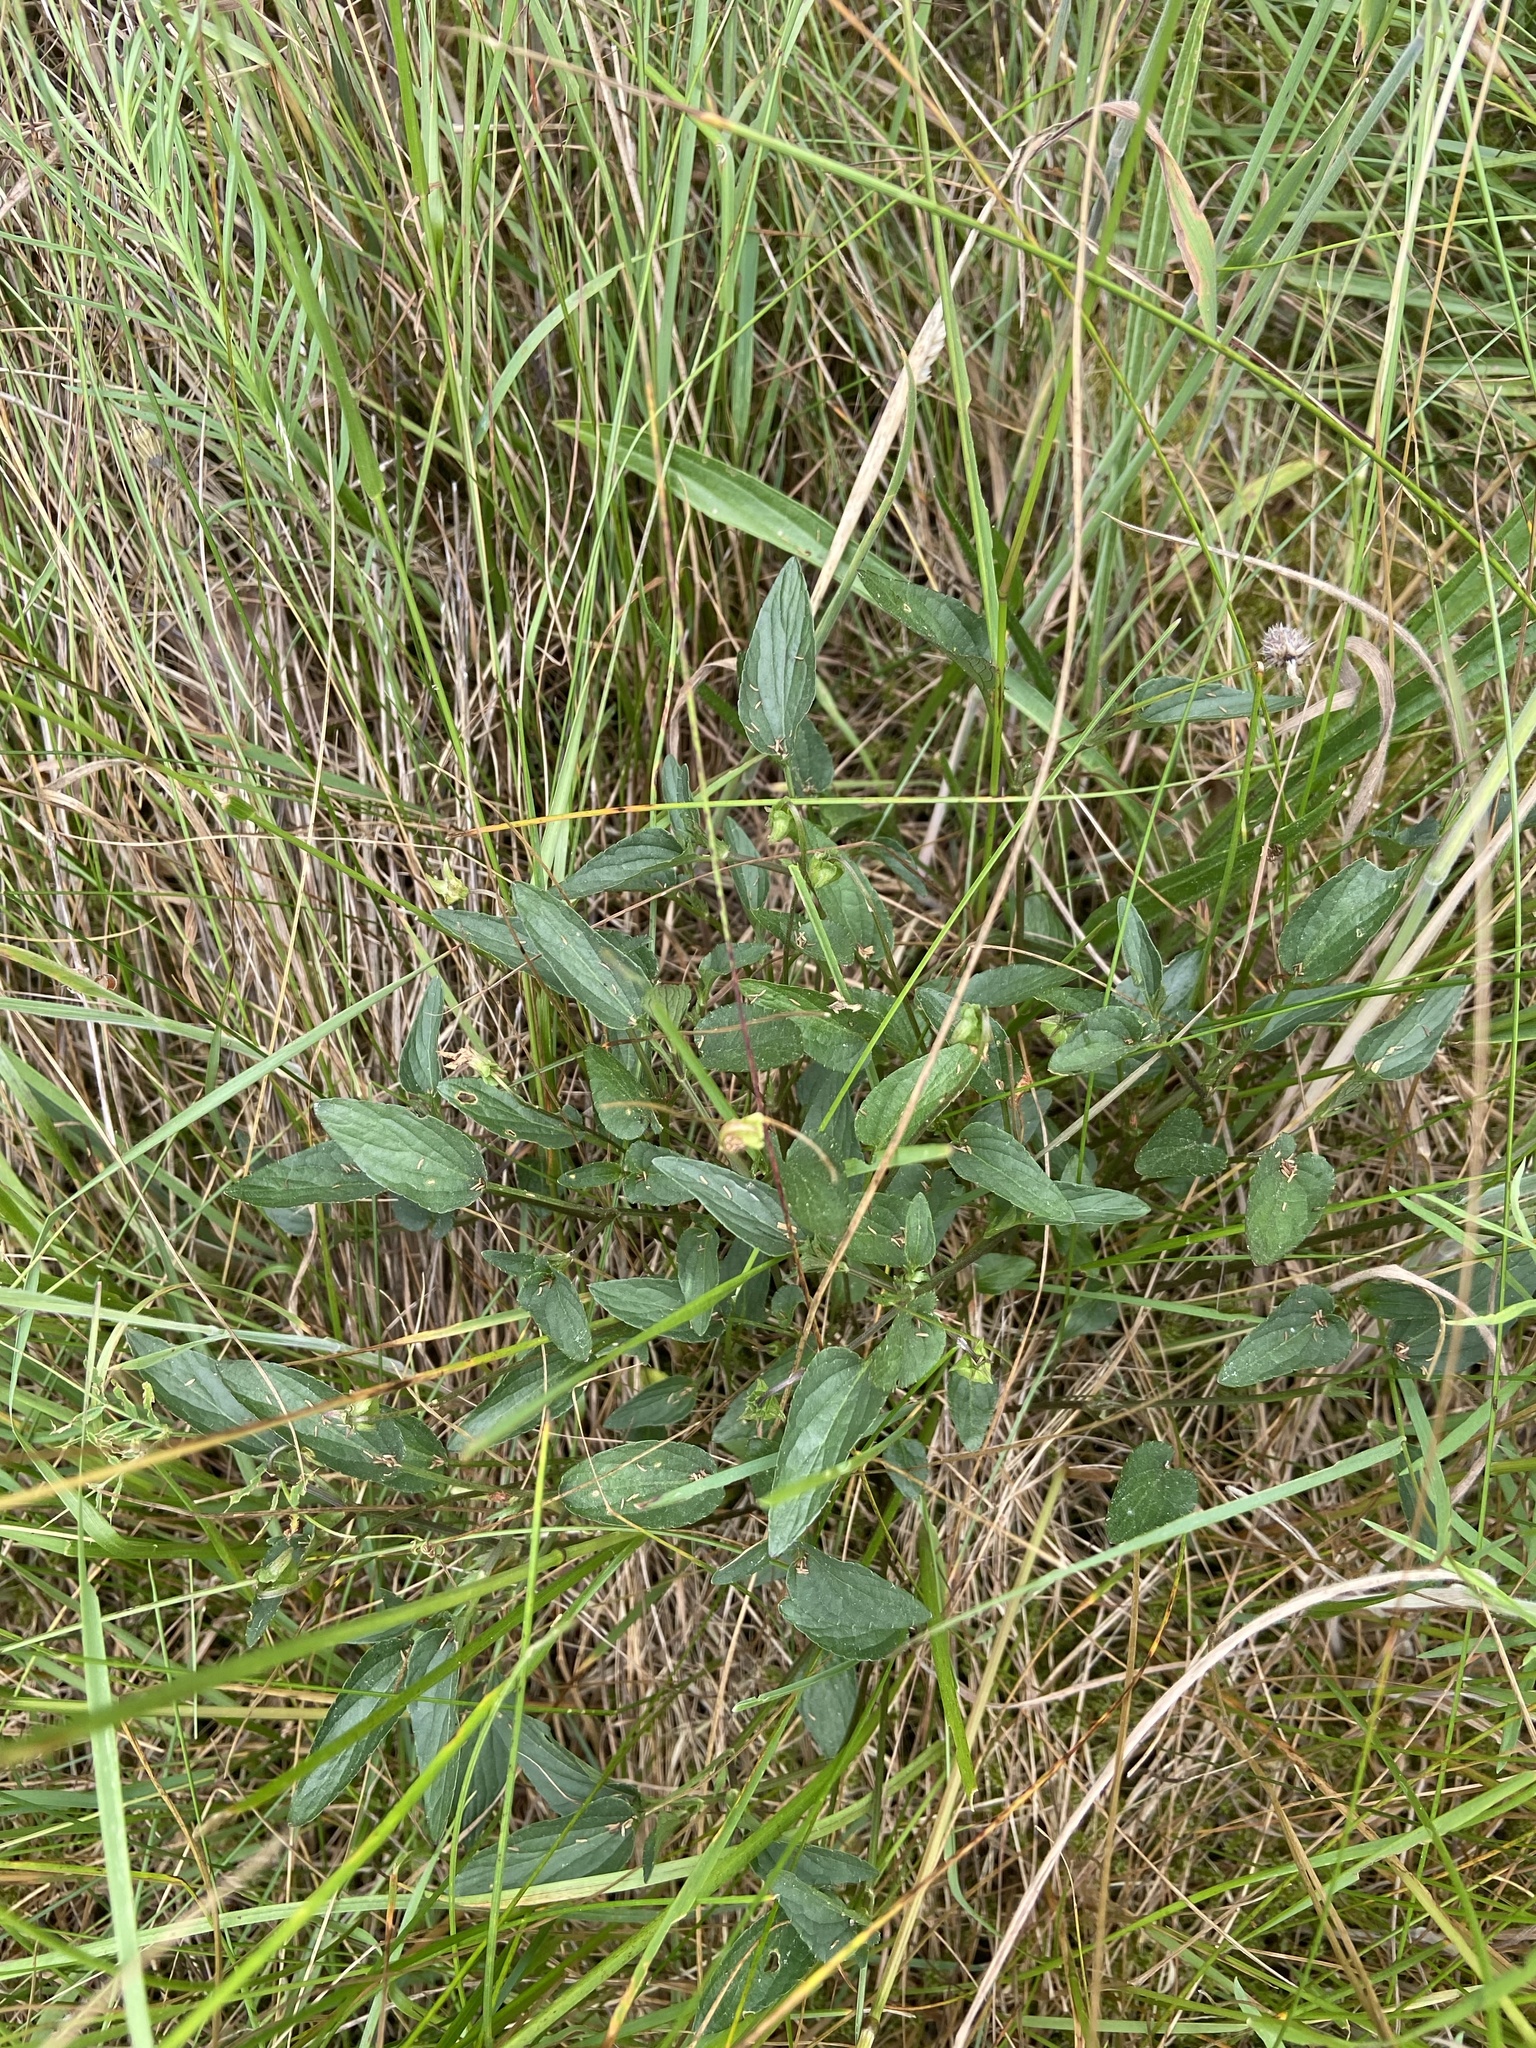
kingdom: Plantae
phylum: Tracheophyta
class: Magnoliopsida
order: Malpighiales
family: Violaceae
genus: Viola
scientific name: Viola canina
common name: Heath dog-violet
